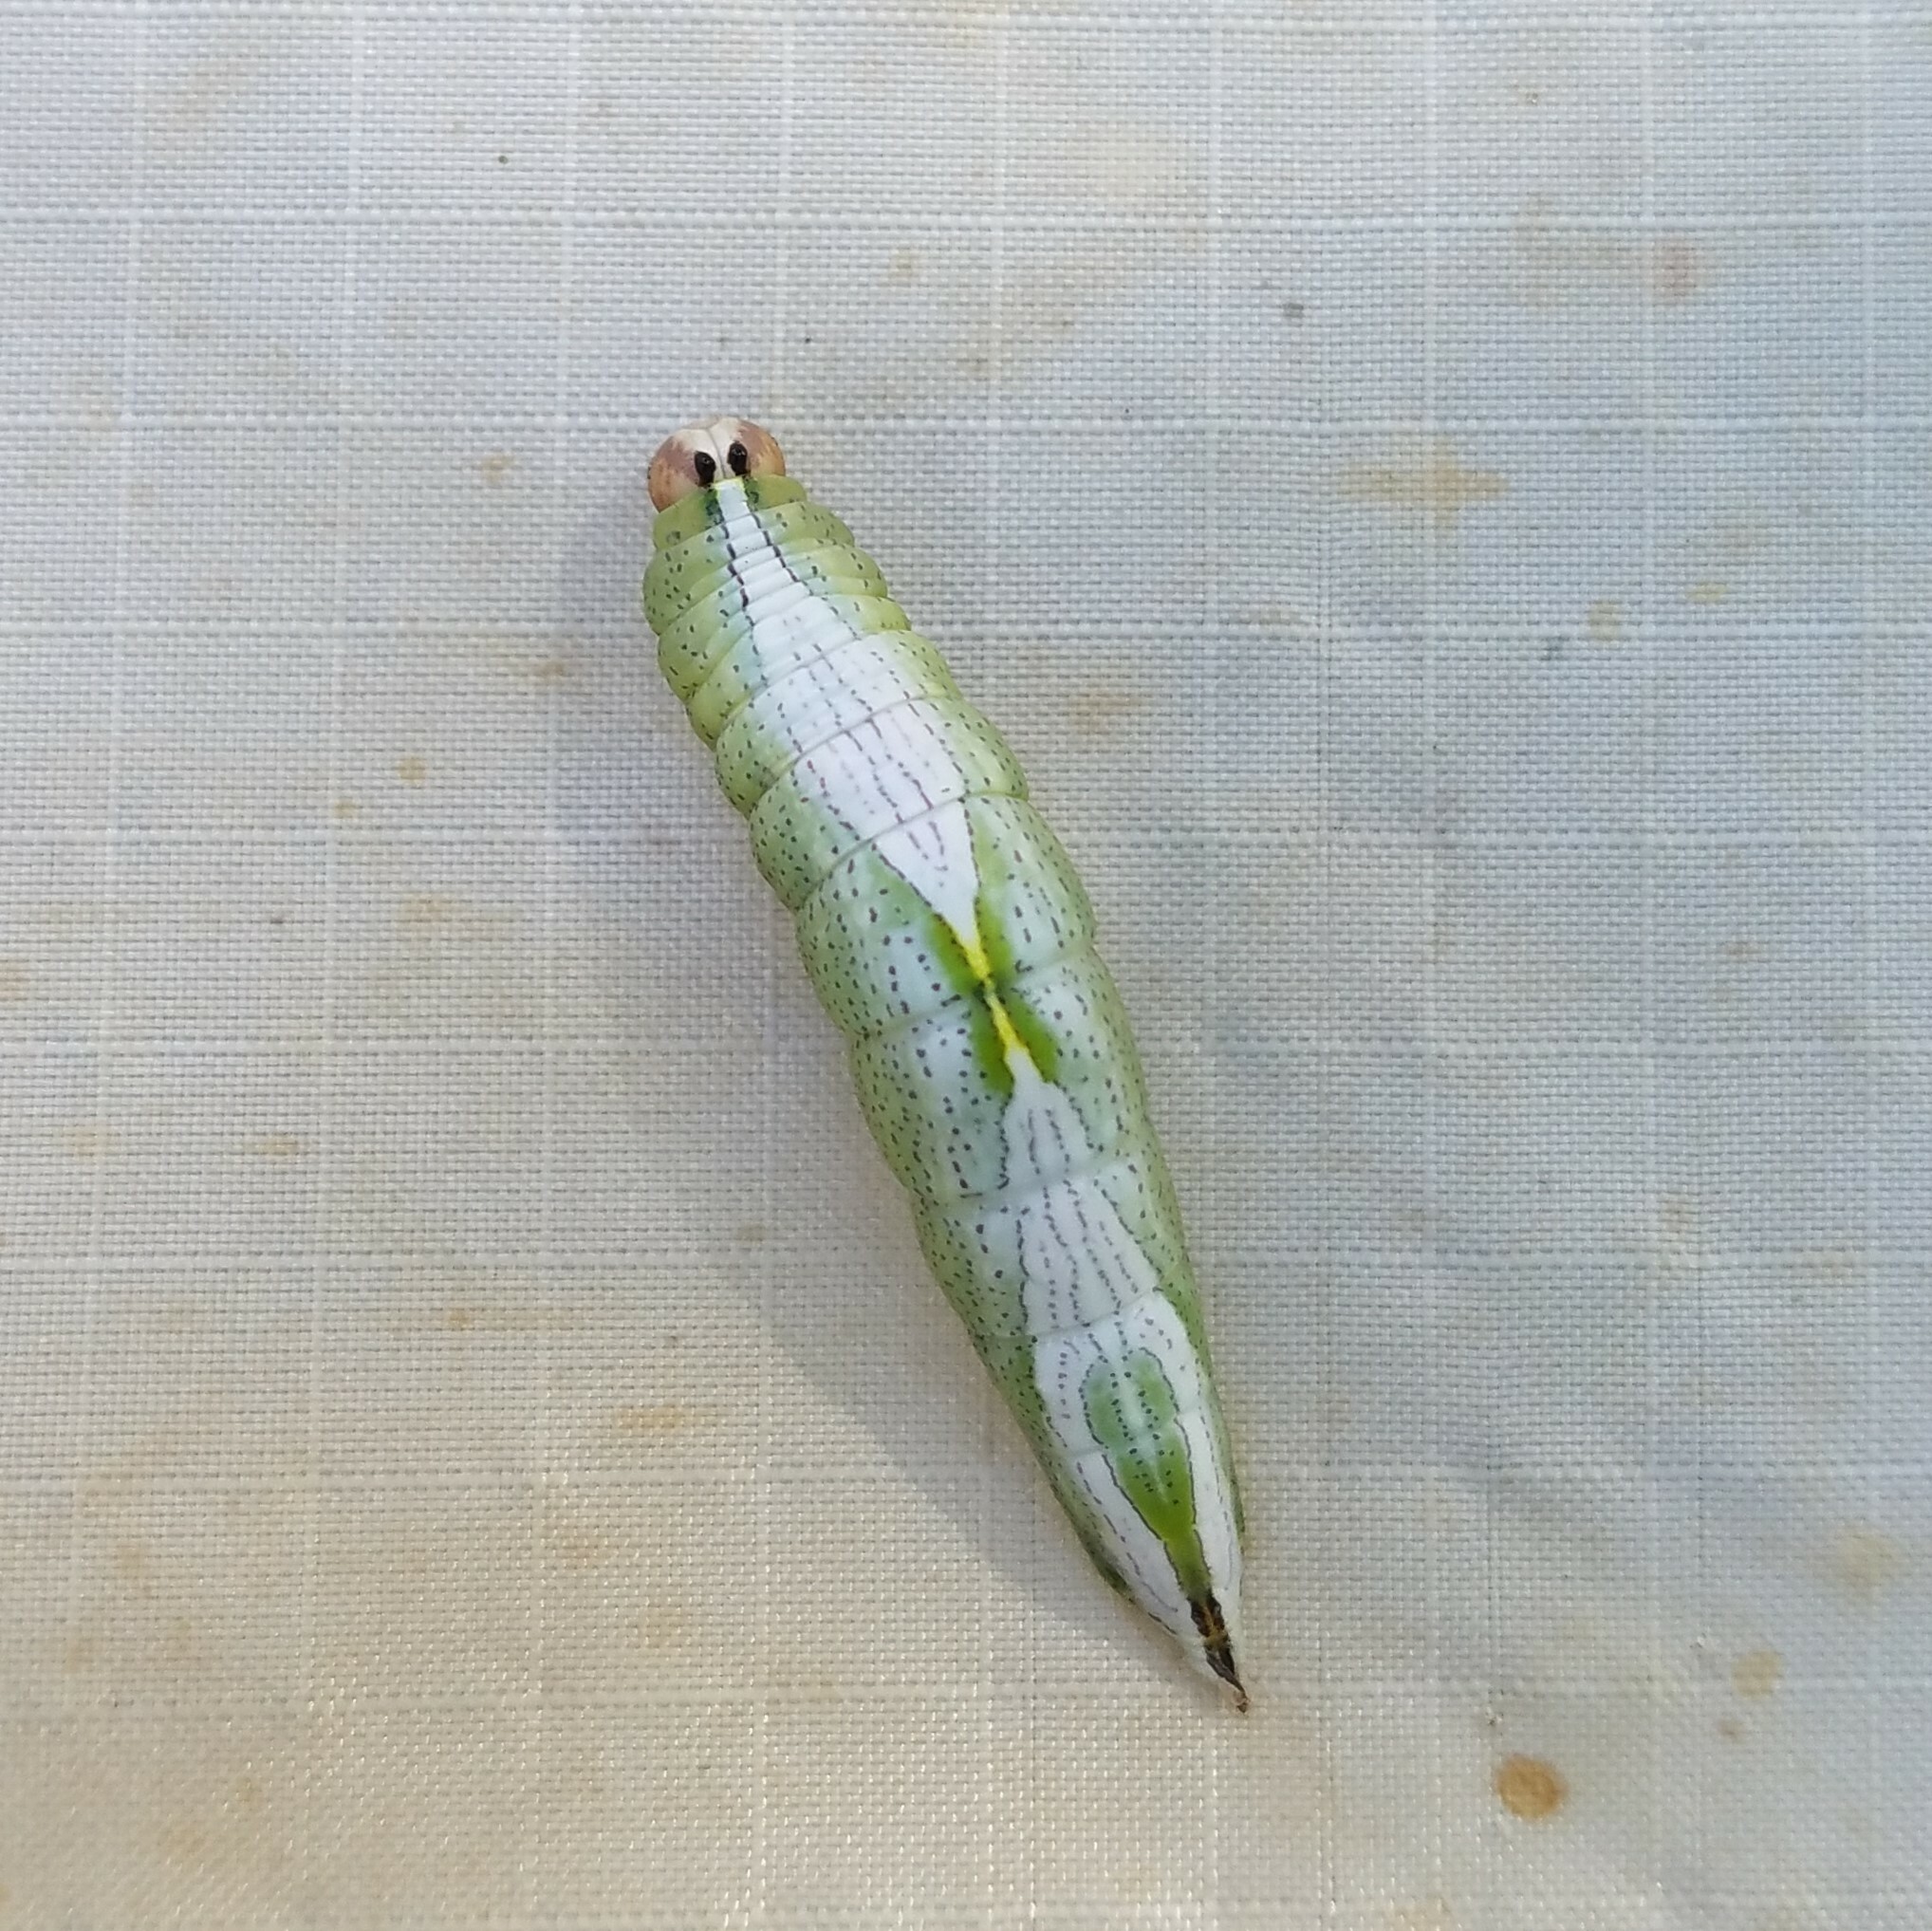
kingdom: Animalia
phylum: Arthropoda
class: Insecta
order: Lepidoptera
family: Notodontidae
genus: Disphragis
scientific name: Disphragis Cecrita biundata
